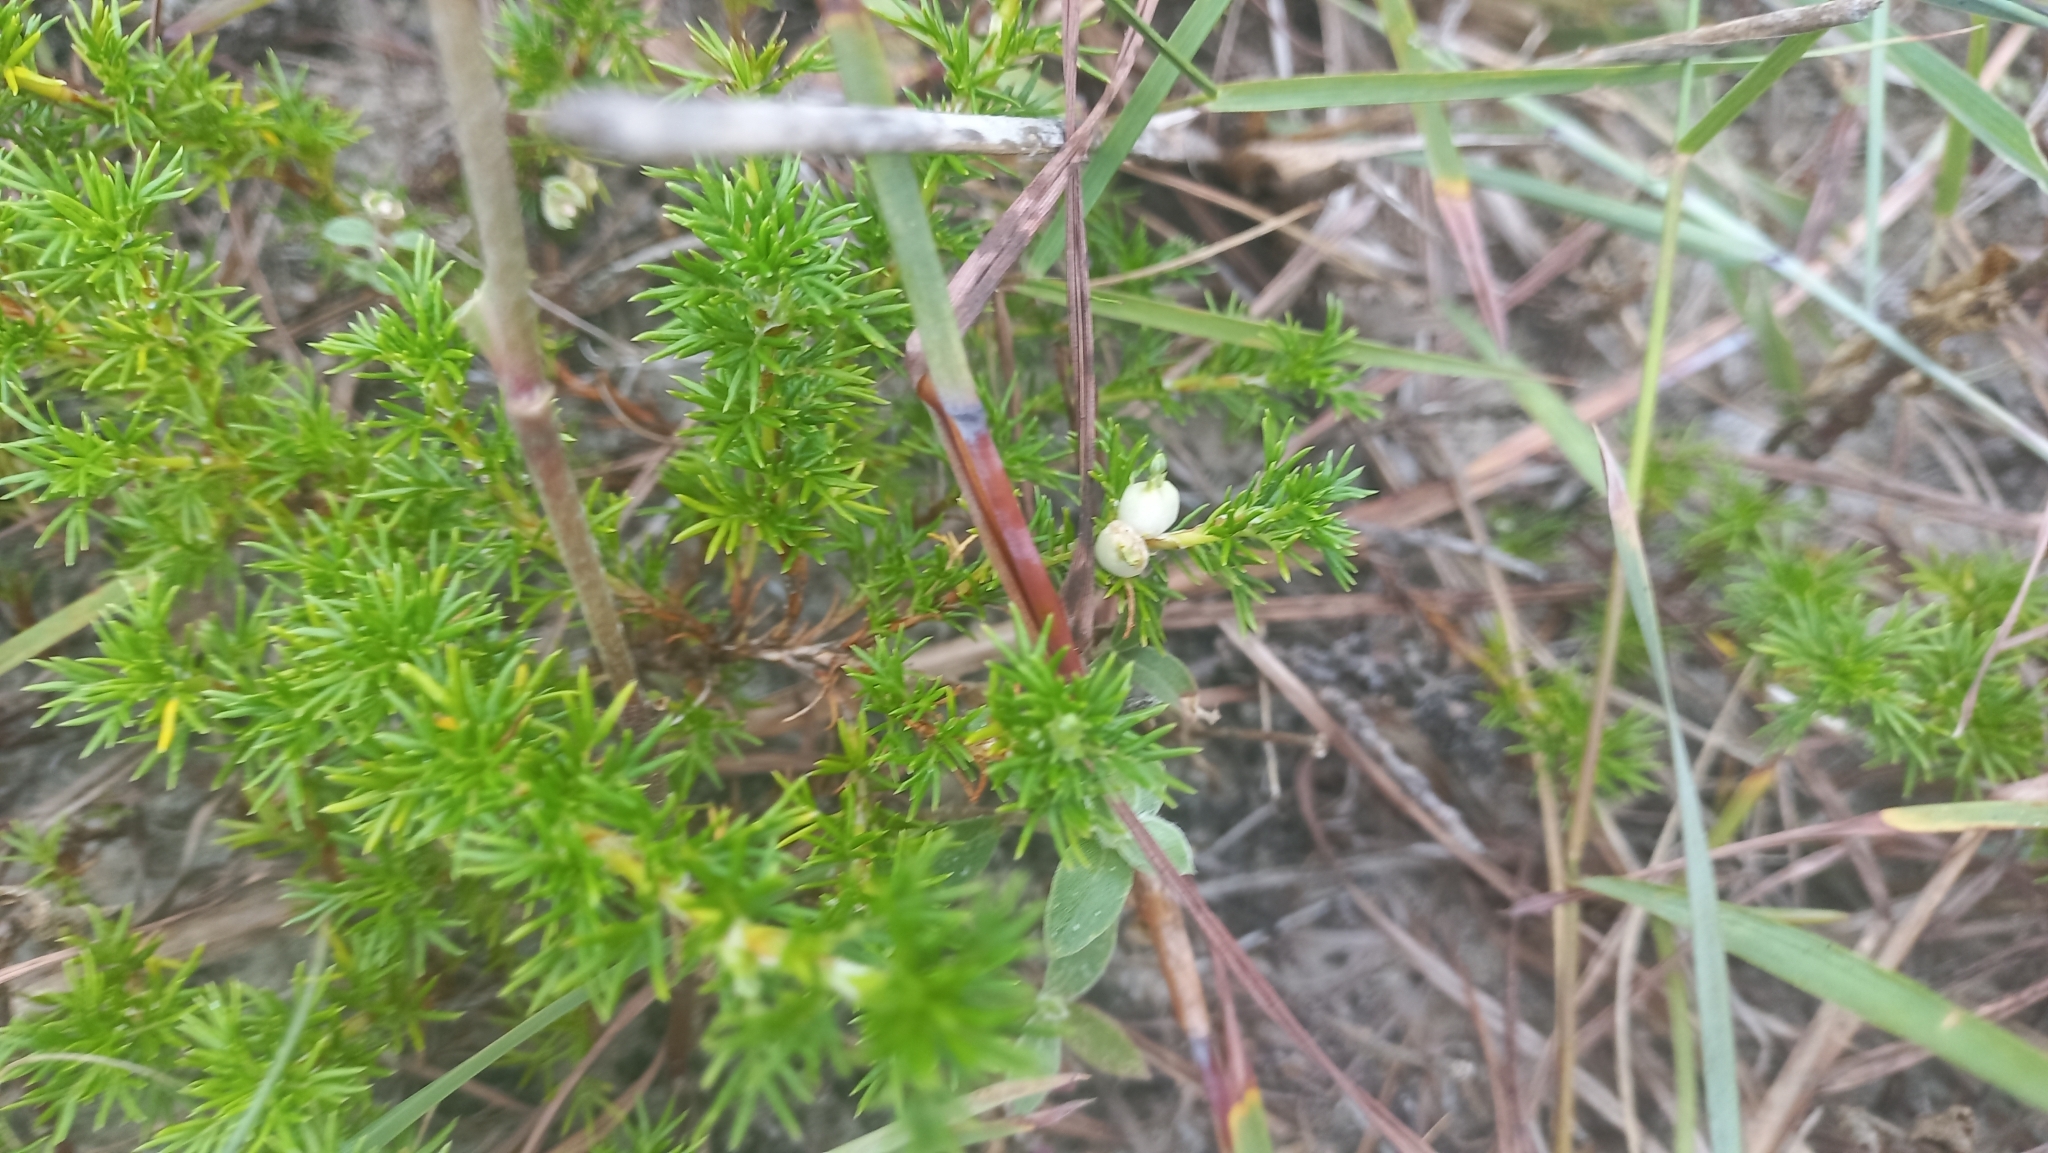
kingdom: Plantae
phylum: Tracheophyta
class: Magnoliopsida
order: Rosales
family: Rosaceae
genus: Margyricarpus
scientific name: Margyricarpus pinnatus
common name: Pearlfruit
